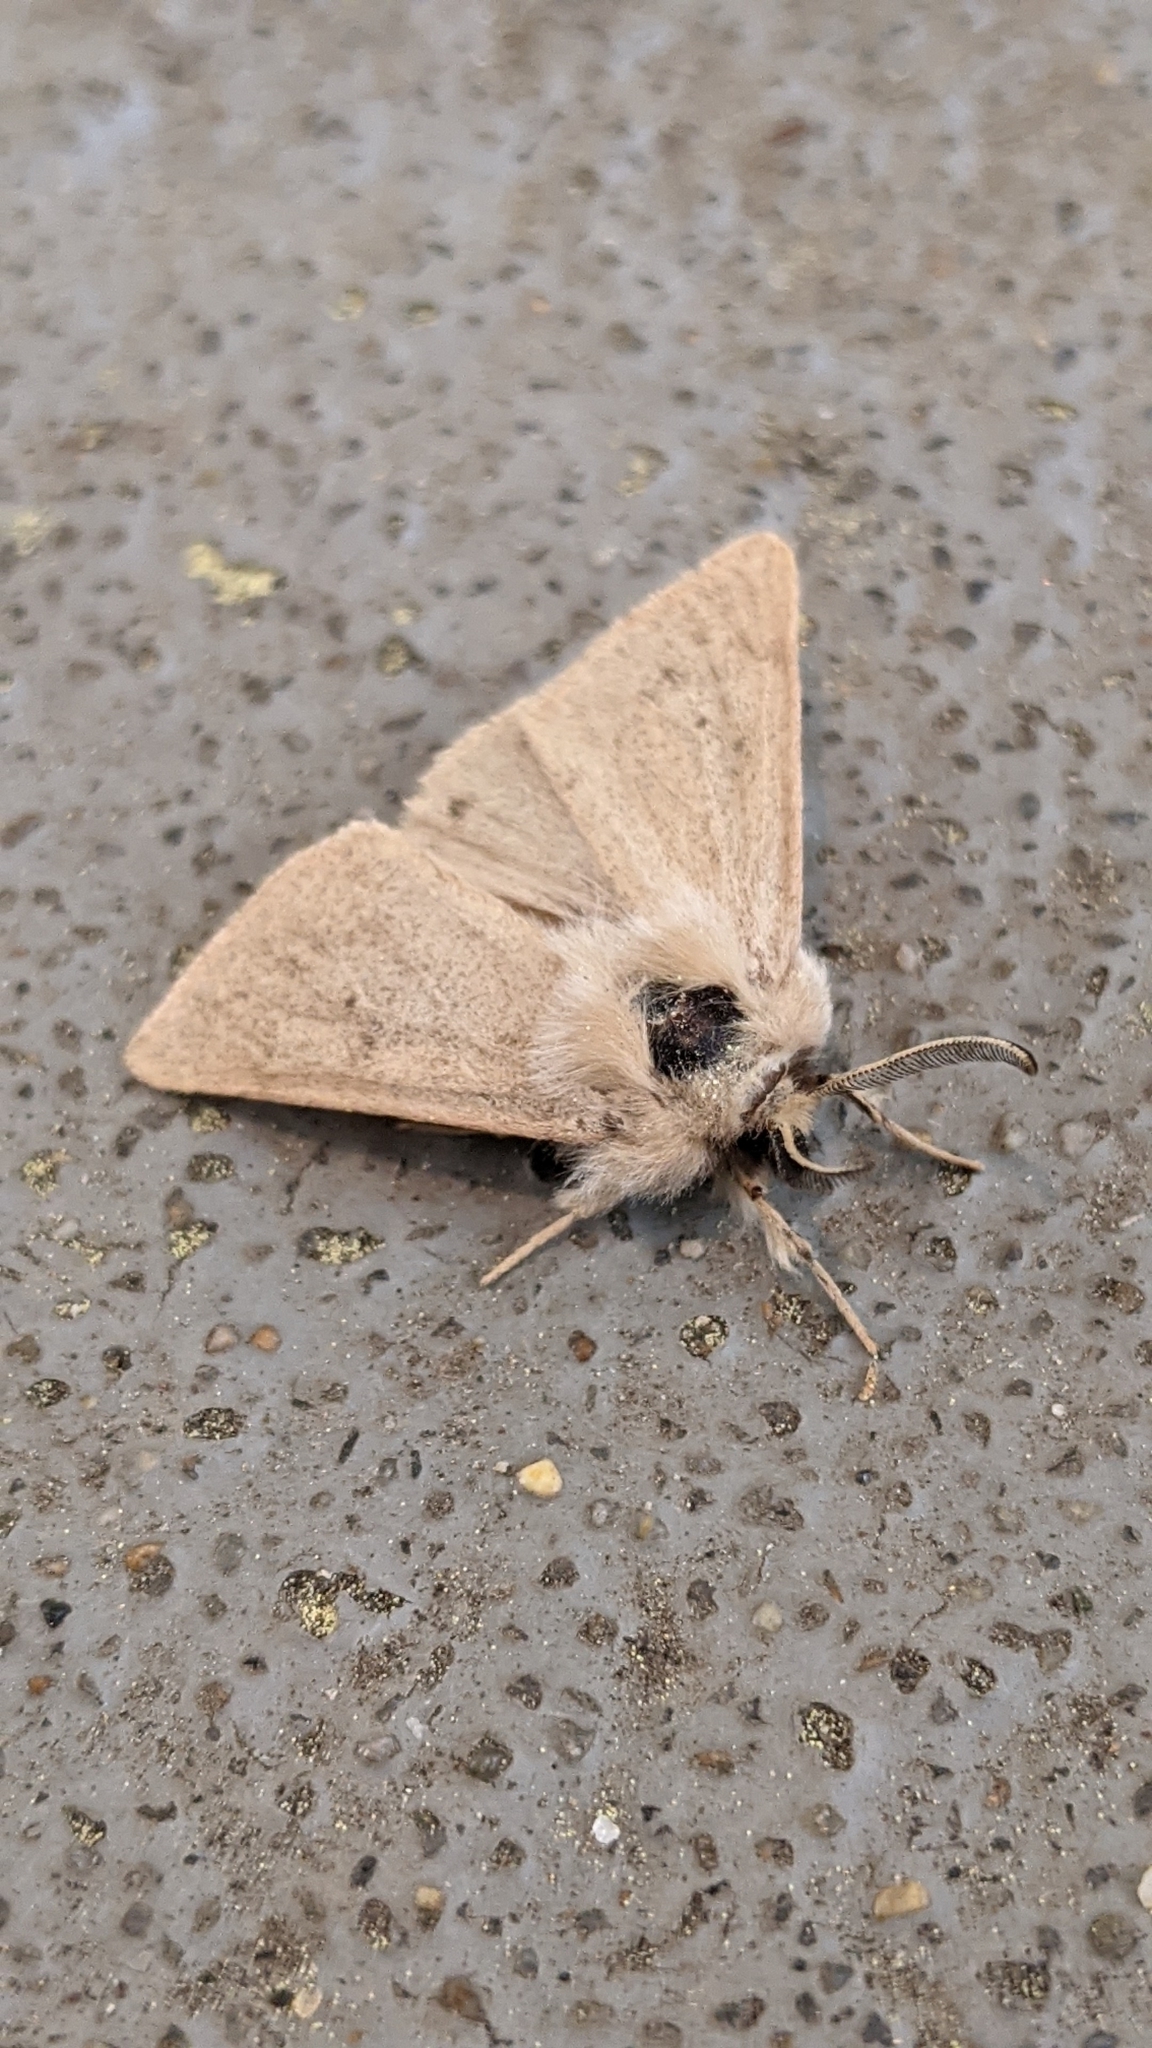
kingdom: Animalia
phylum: Arthropoda
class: Insecta
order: Lepidoptera
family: Erebidae
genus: Spilosoma
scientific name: Spilosoma vagans
